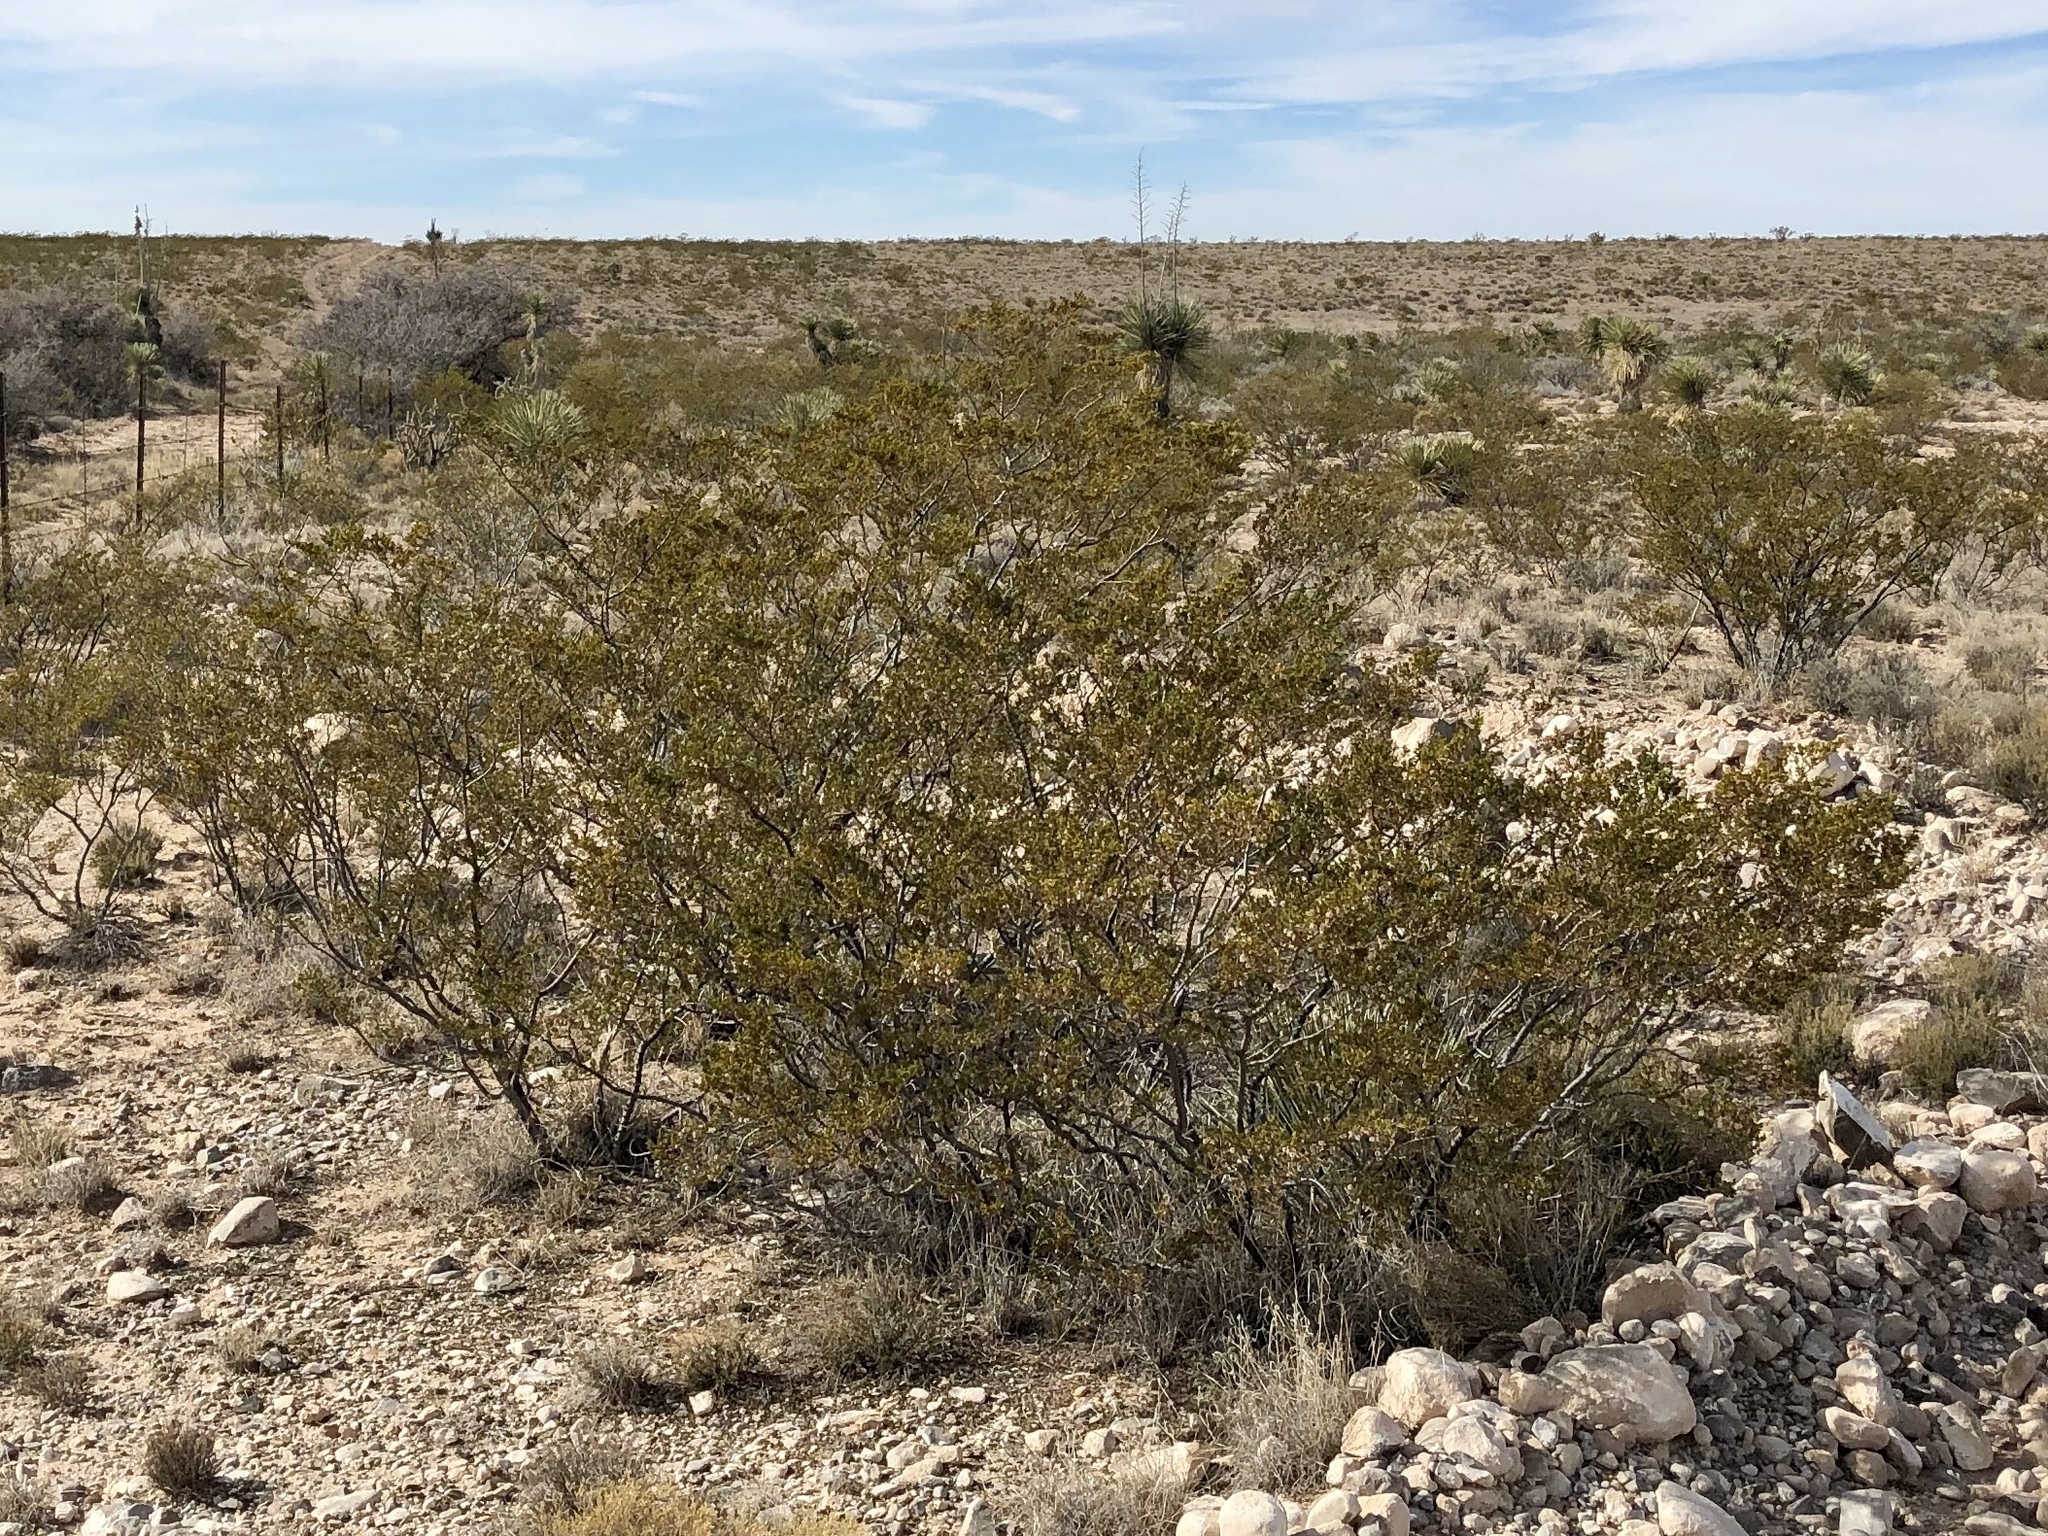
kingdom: Plantae
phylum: Tracheophyta
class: Magnoliopsida
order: Zygophyllales
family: Zygophyllaceae
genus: Larrea
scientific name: Larrea tridentata
